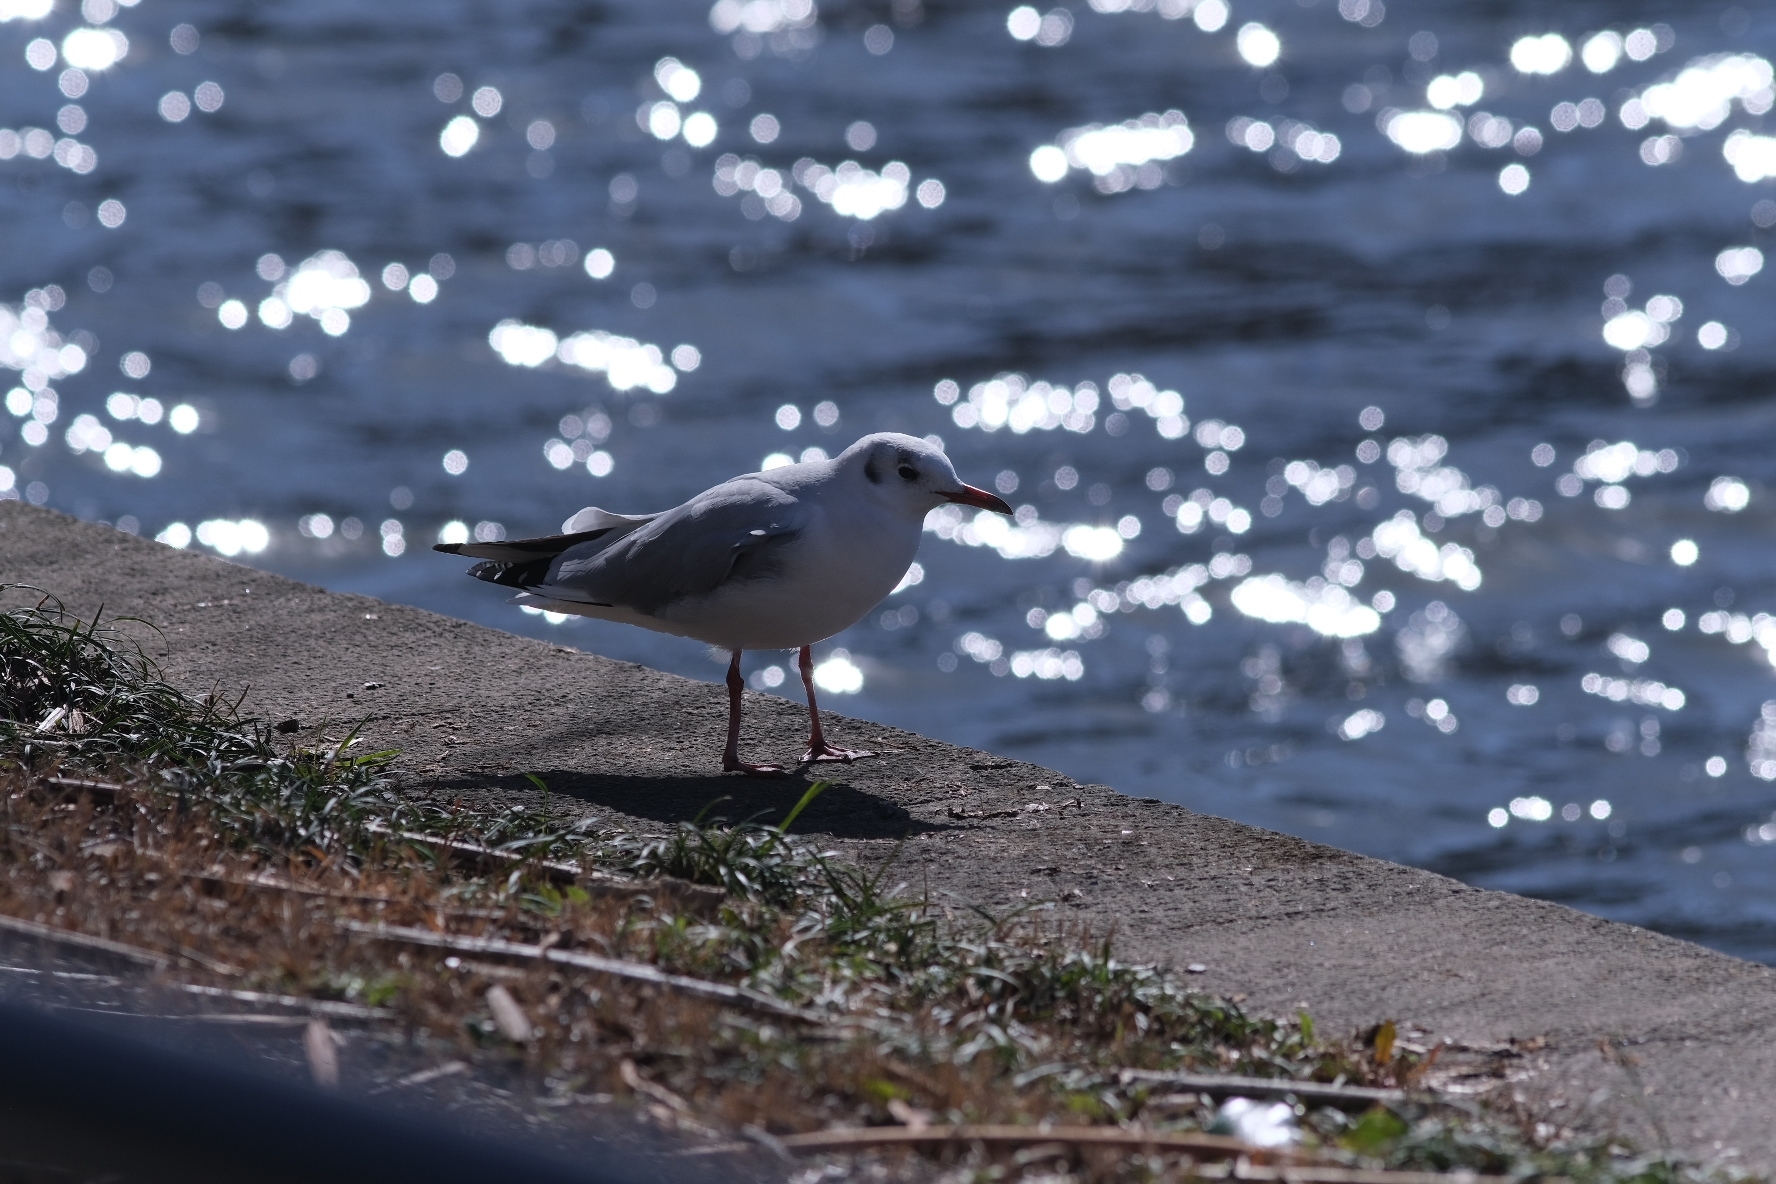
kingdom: Animalia
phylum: Chordata
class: Aves
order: Charadriiformes
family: Laridae
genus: Chroicocephalus
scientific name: Chroicocephalus ridibundus
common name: Black-headed gull
